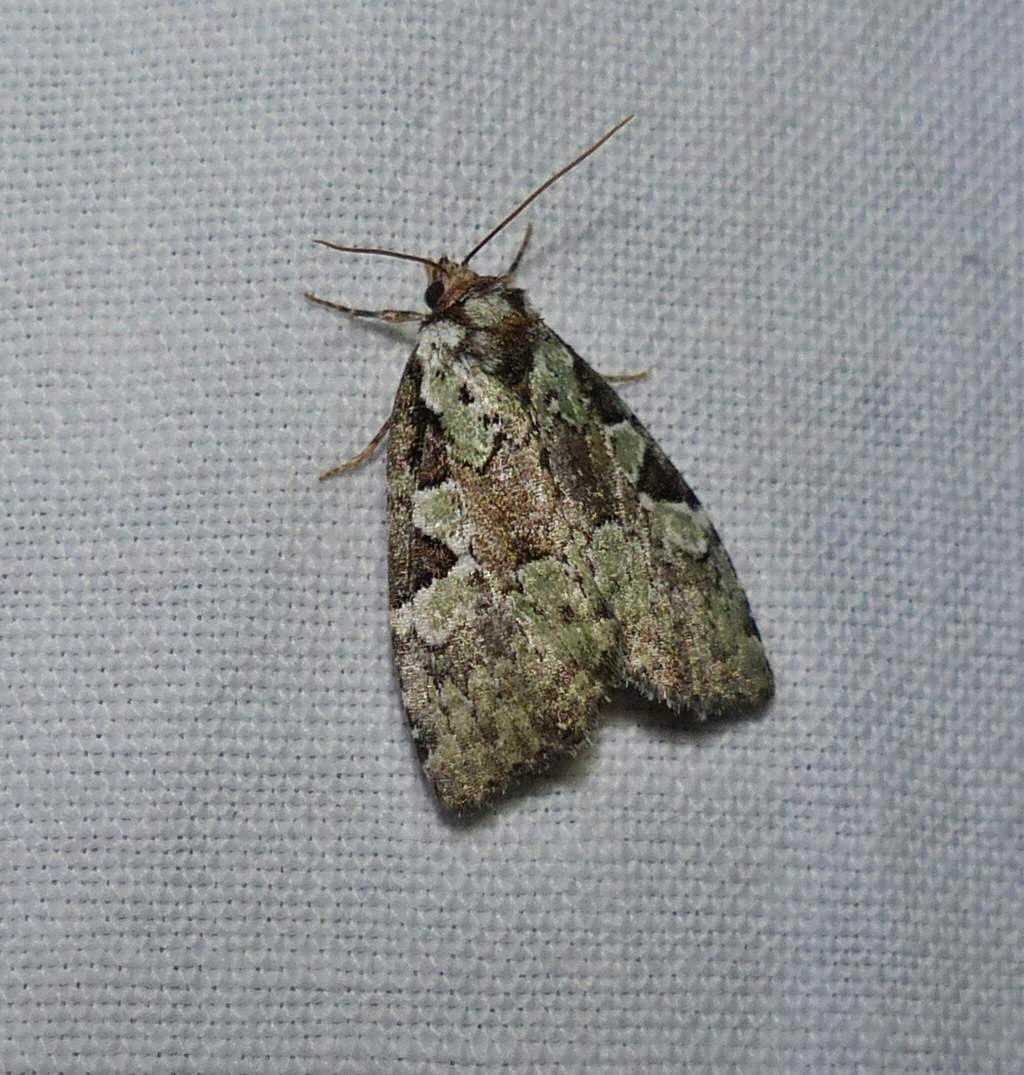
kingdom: Animalia
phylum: Arthropoda
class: Insecta
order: Lepidoptera
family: Noctuidae
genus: Leuconycta
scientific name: Leuconycta lepidula
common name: Marbled-green leuconycta moth
